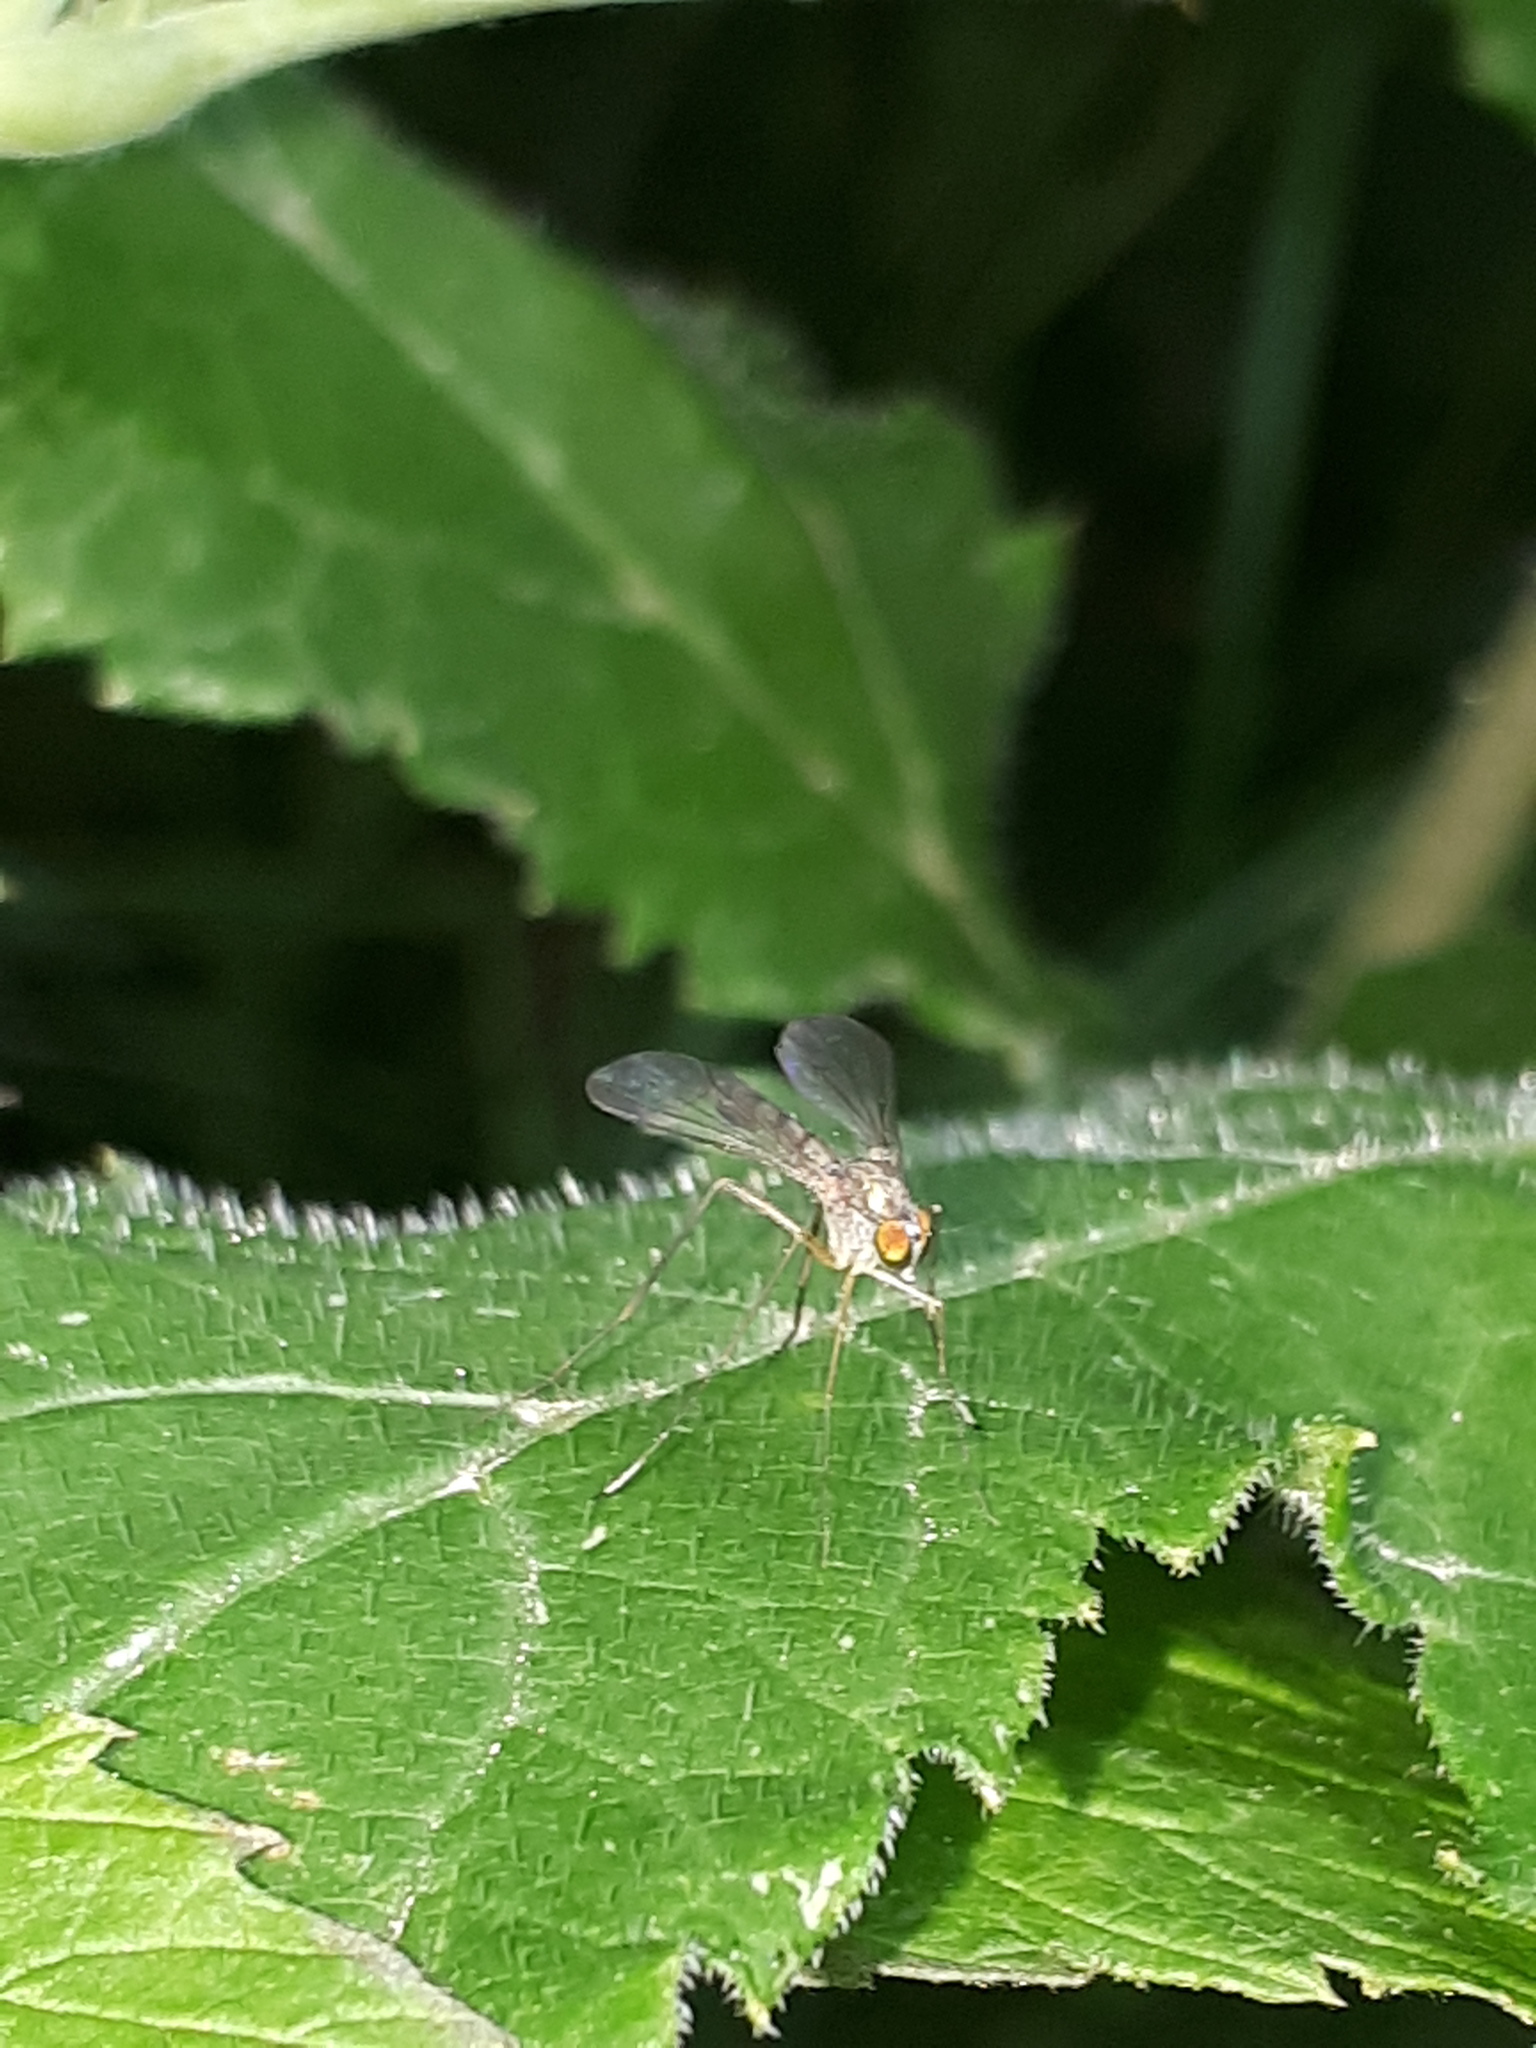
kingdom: Animalia
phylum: Arthropoda
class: Insecta
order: Diptera
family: Dolichopodidae
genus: Sciapus
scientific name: Sciapus platypterus
